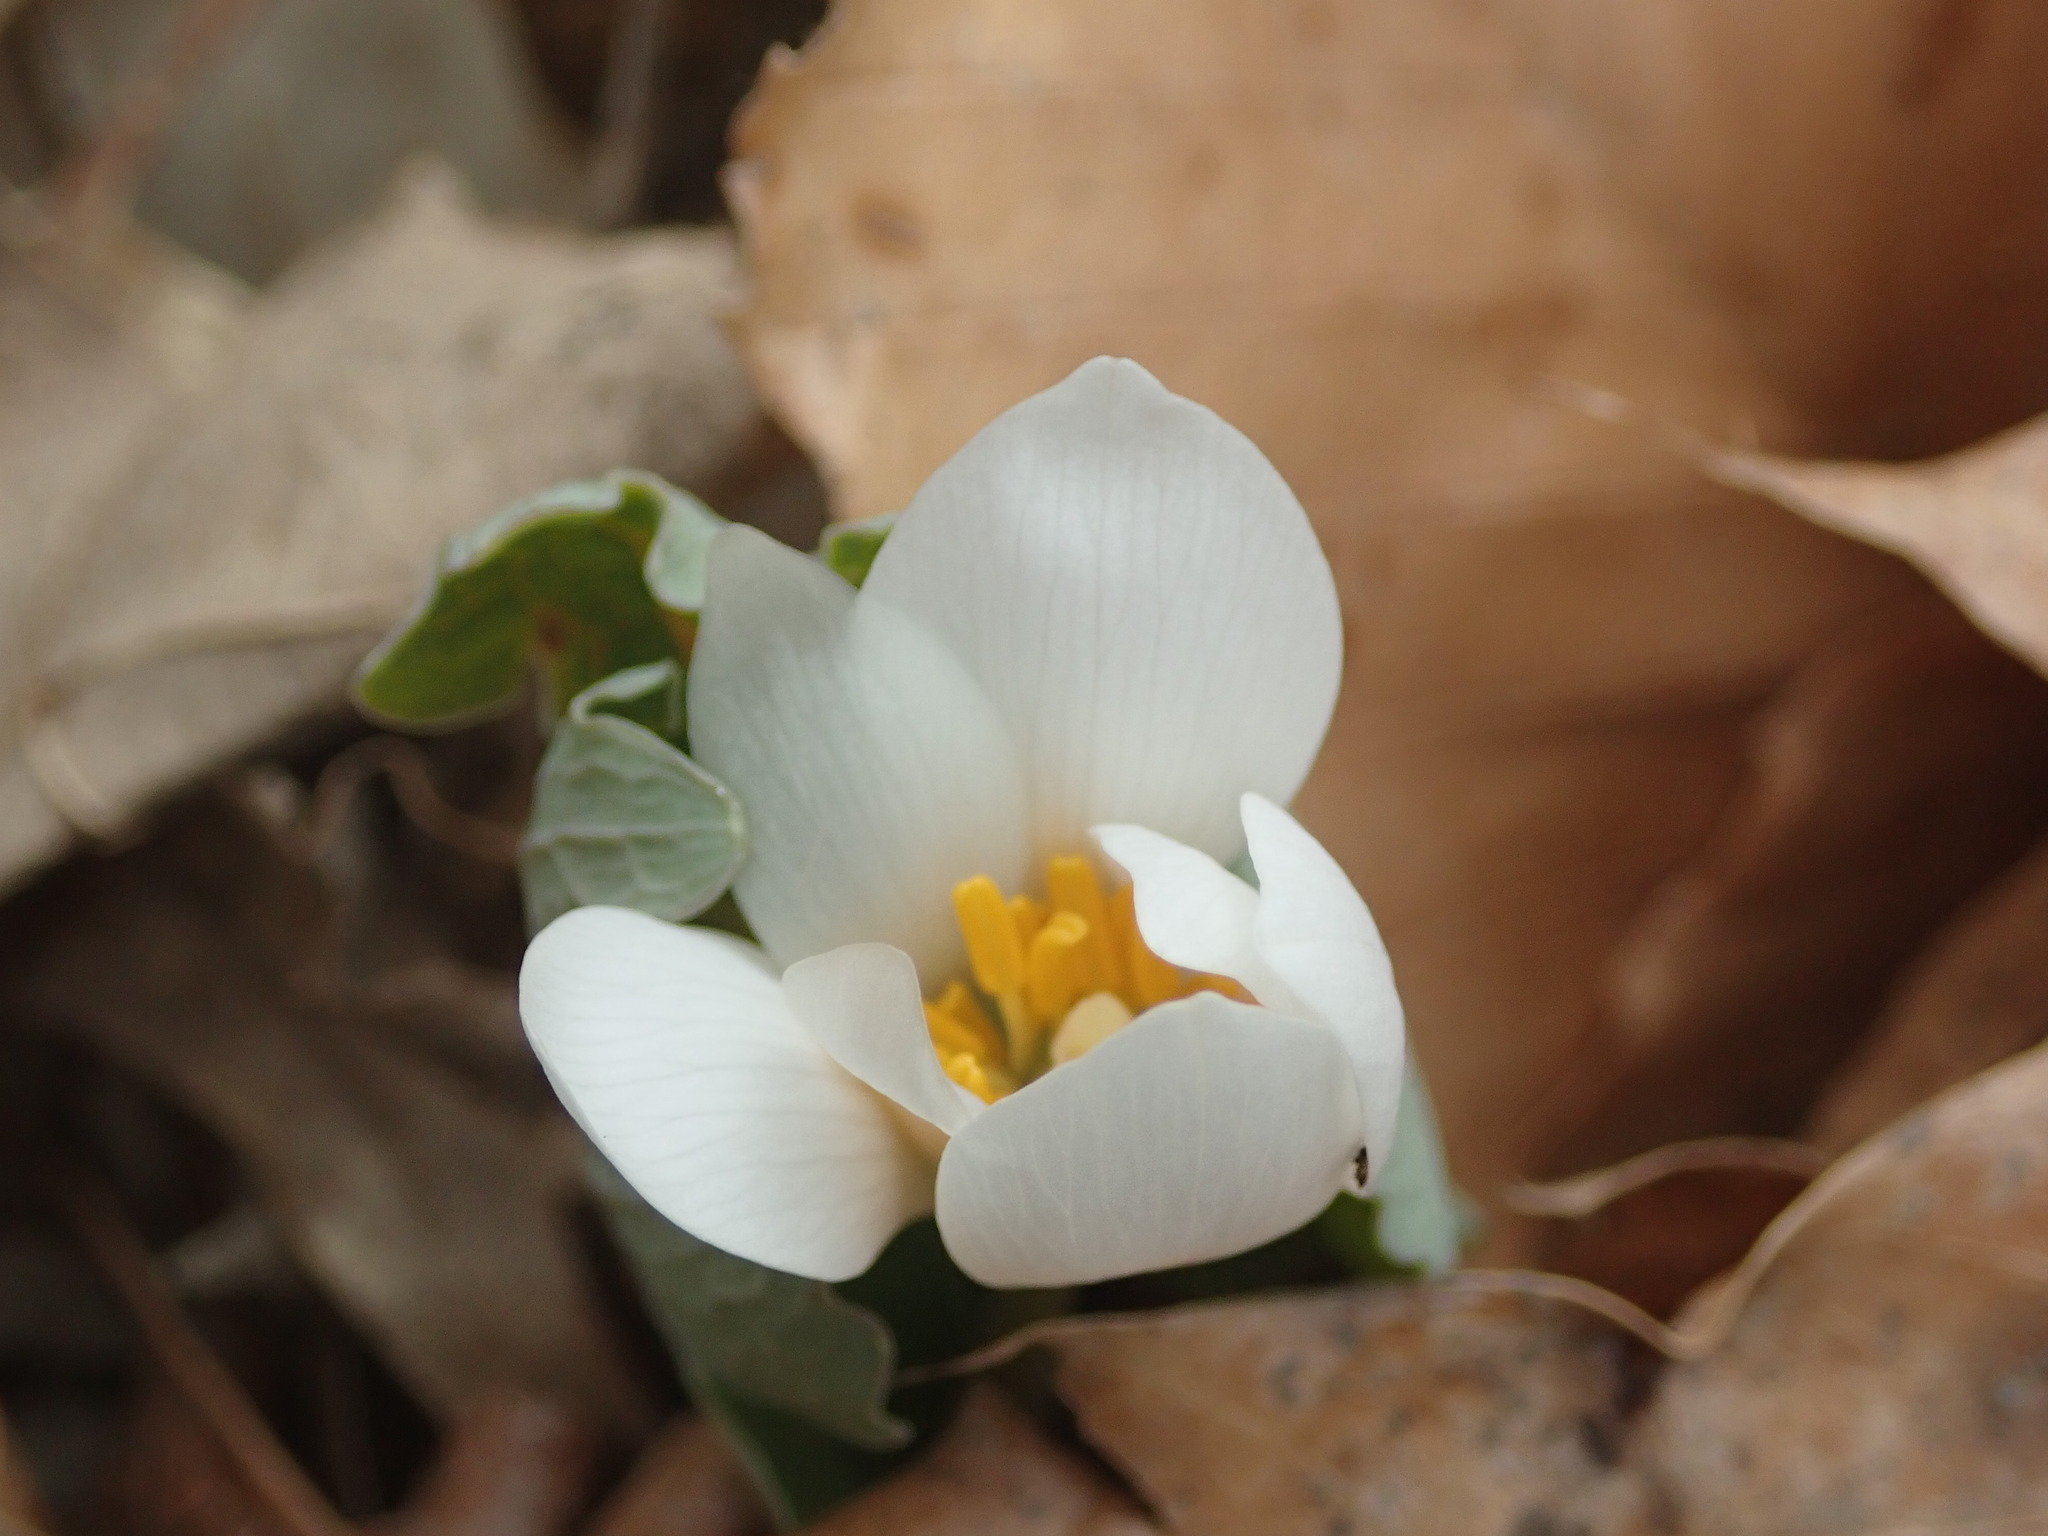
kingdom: Plantae
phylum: Tracheophyta
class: Magnoliopsida
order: Ranunculales
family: Papaveraceae
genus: Sanguinaria
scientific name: Sanguinaria canadensis
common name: Bloodroot
